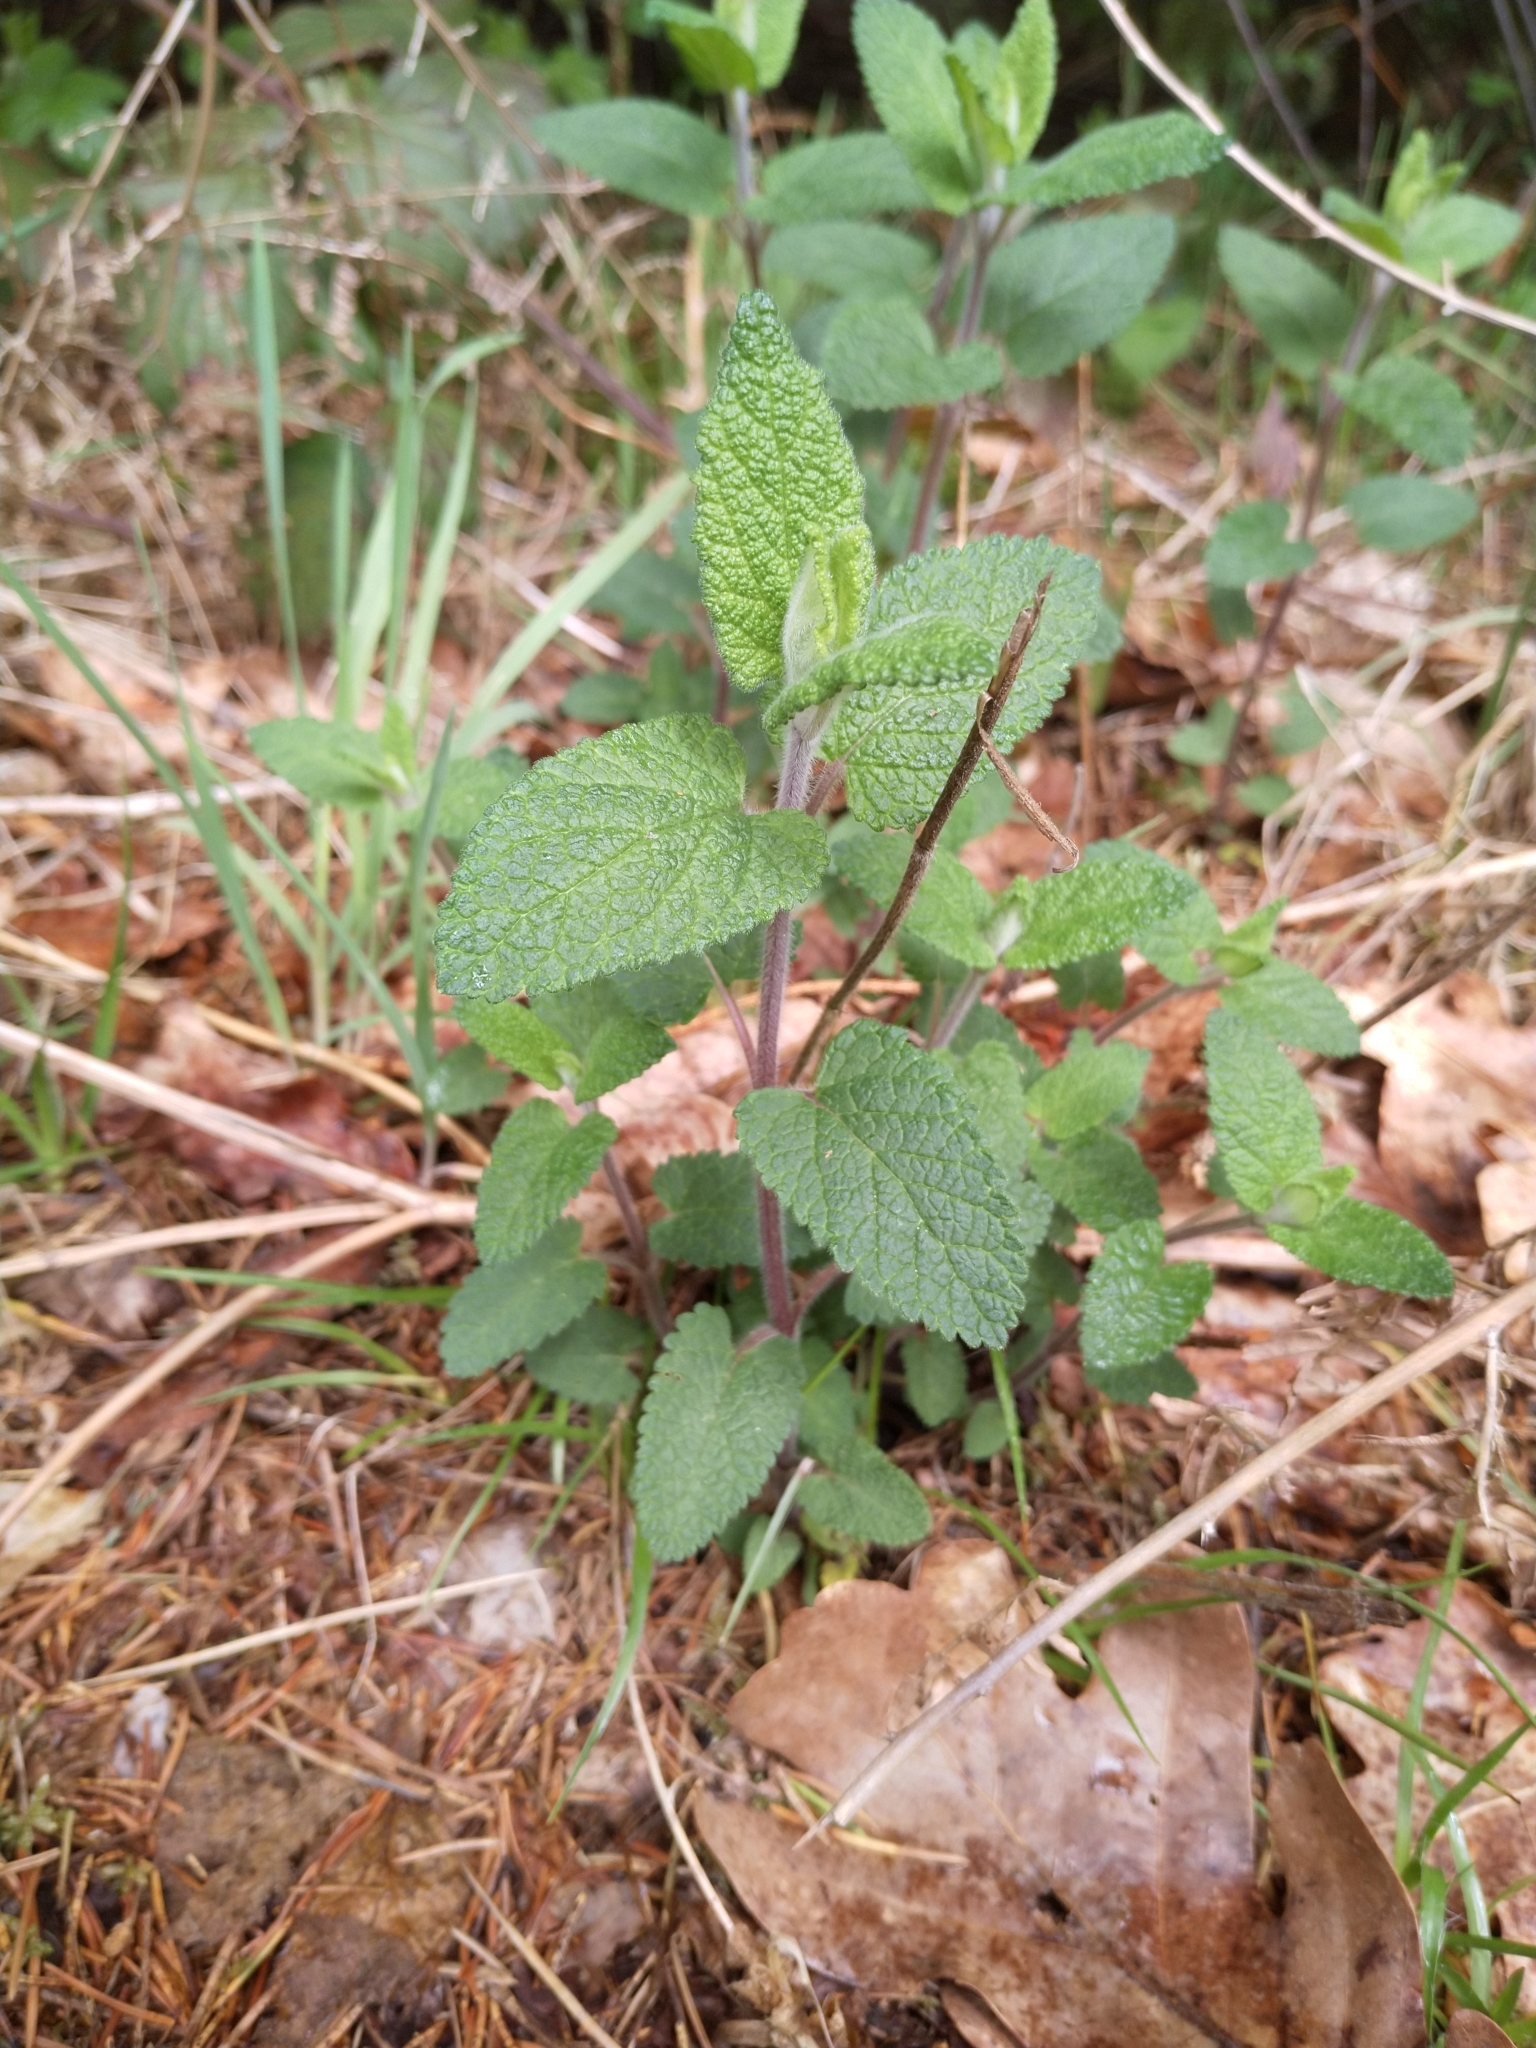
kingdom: Plantae
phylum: Tracheophyta
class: Magnoliopsida
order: Lamiales
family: Lamiaceae
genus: Teucrium
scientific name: Teucrium scorodonia
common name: Woodland germander
